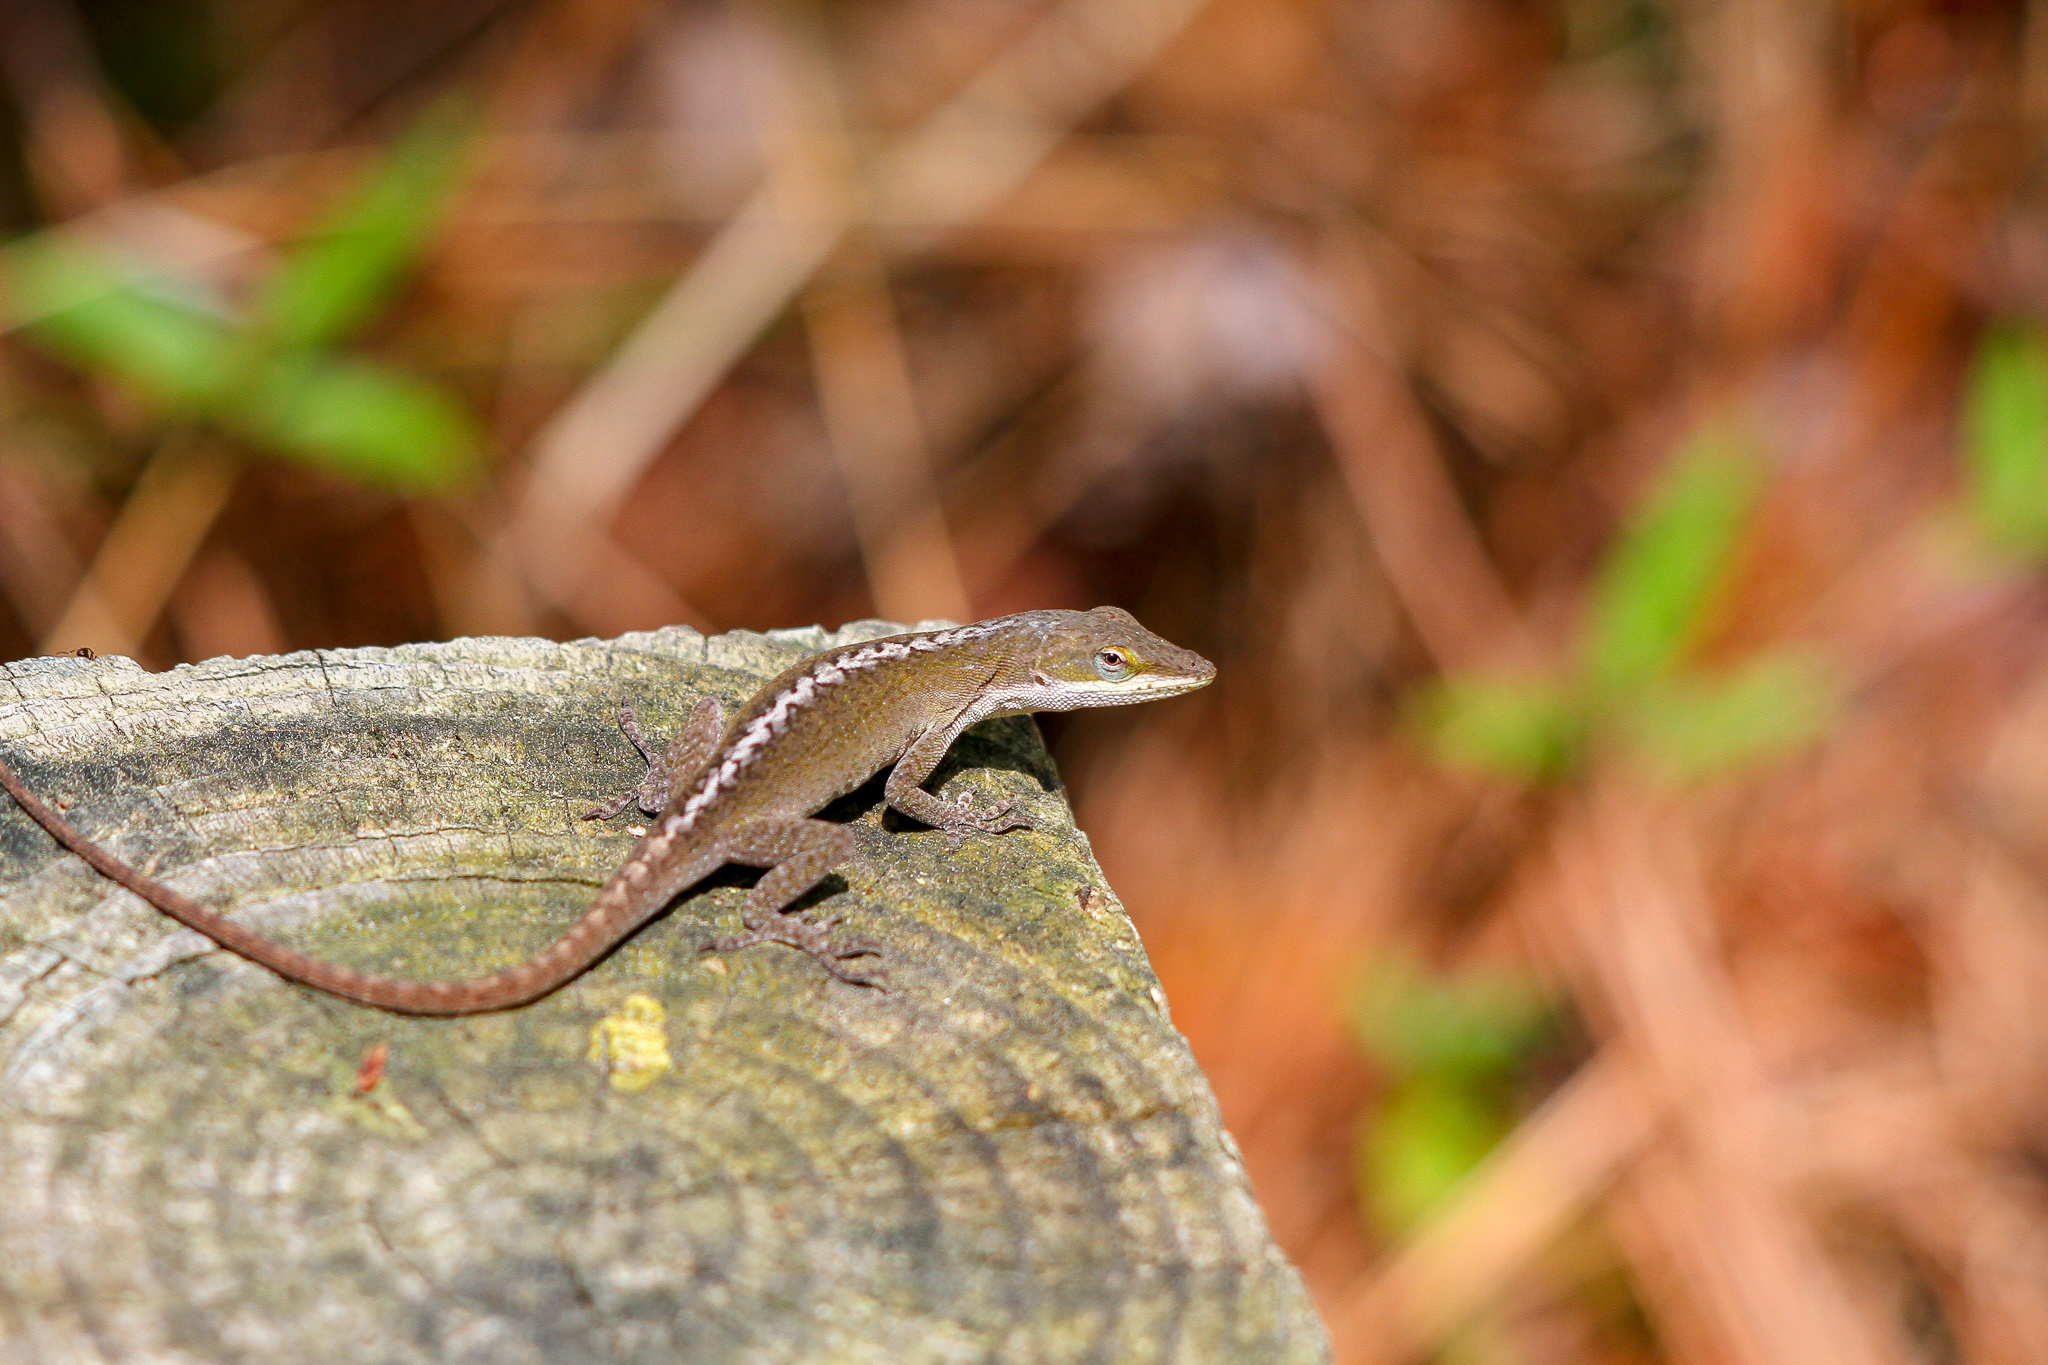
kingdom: Animalia
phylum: Chordata
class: Squamata
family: Dactyloidae
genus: Anolis
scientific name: Anolis carolinensis
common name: Green anole
